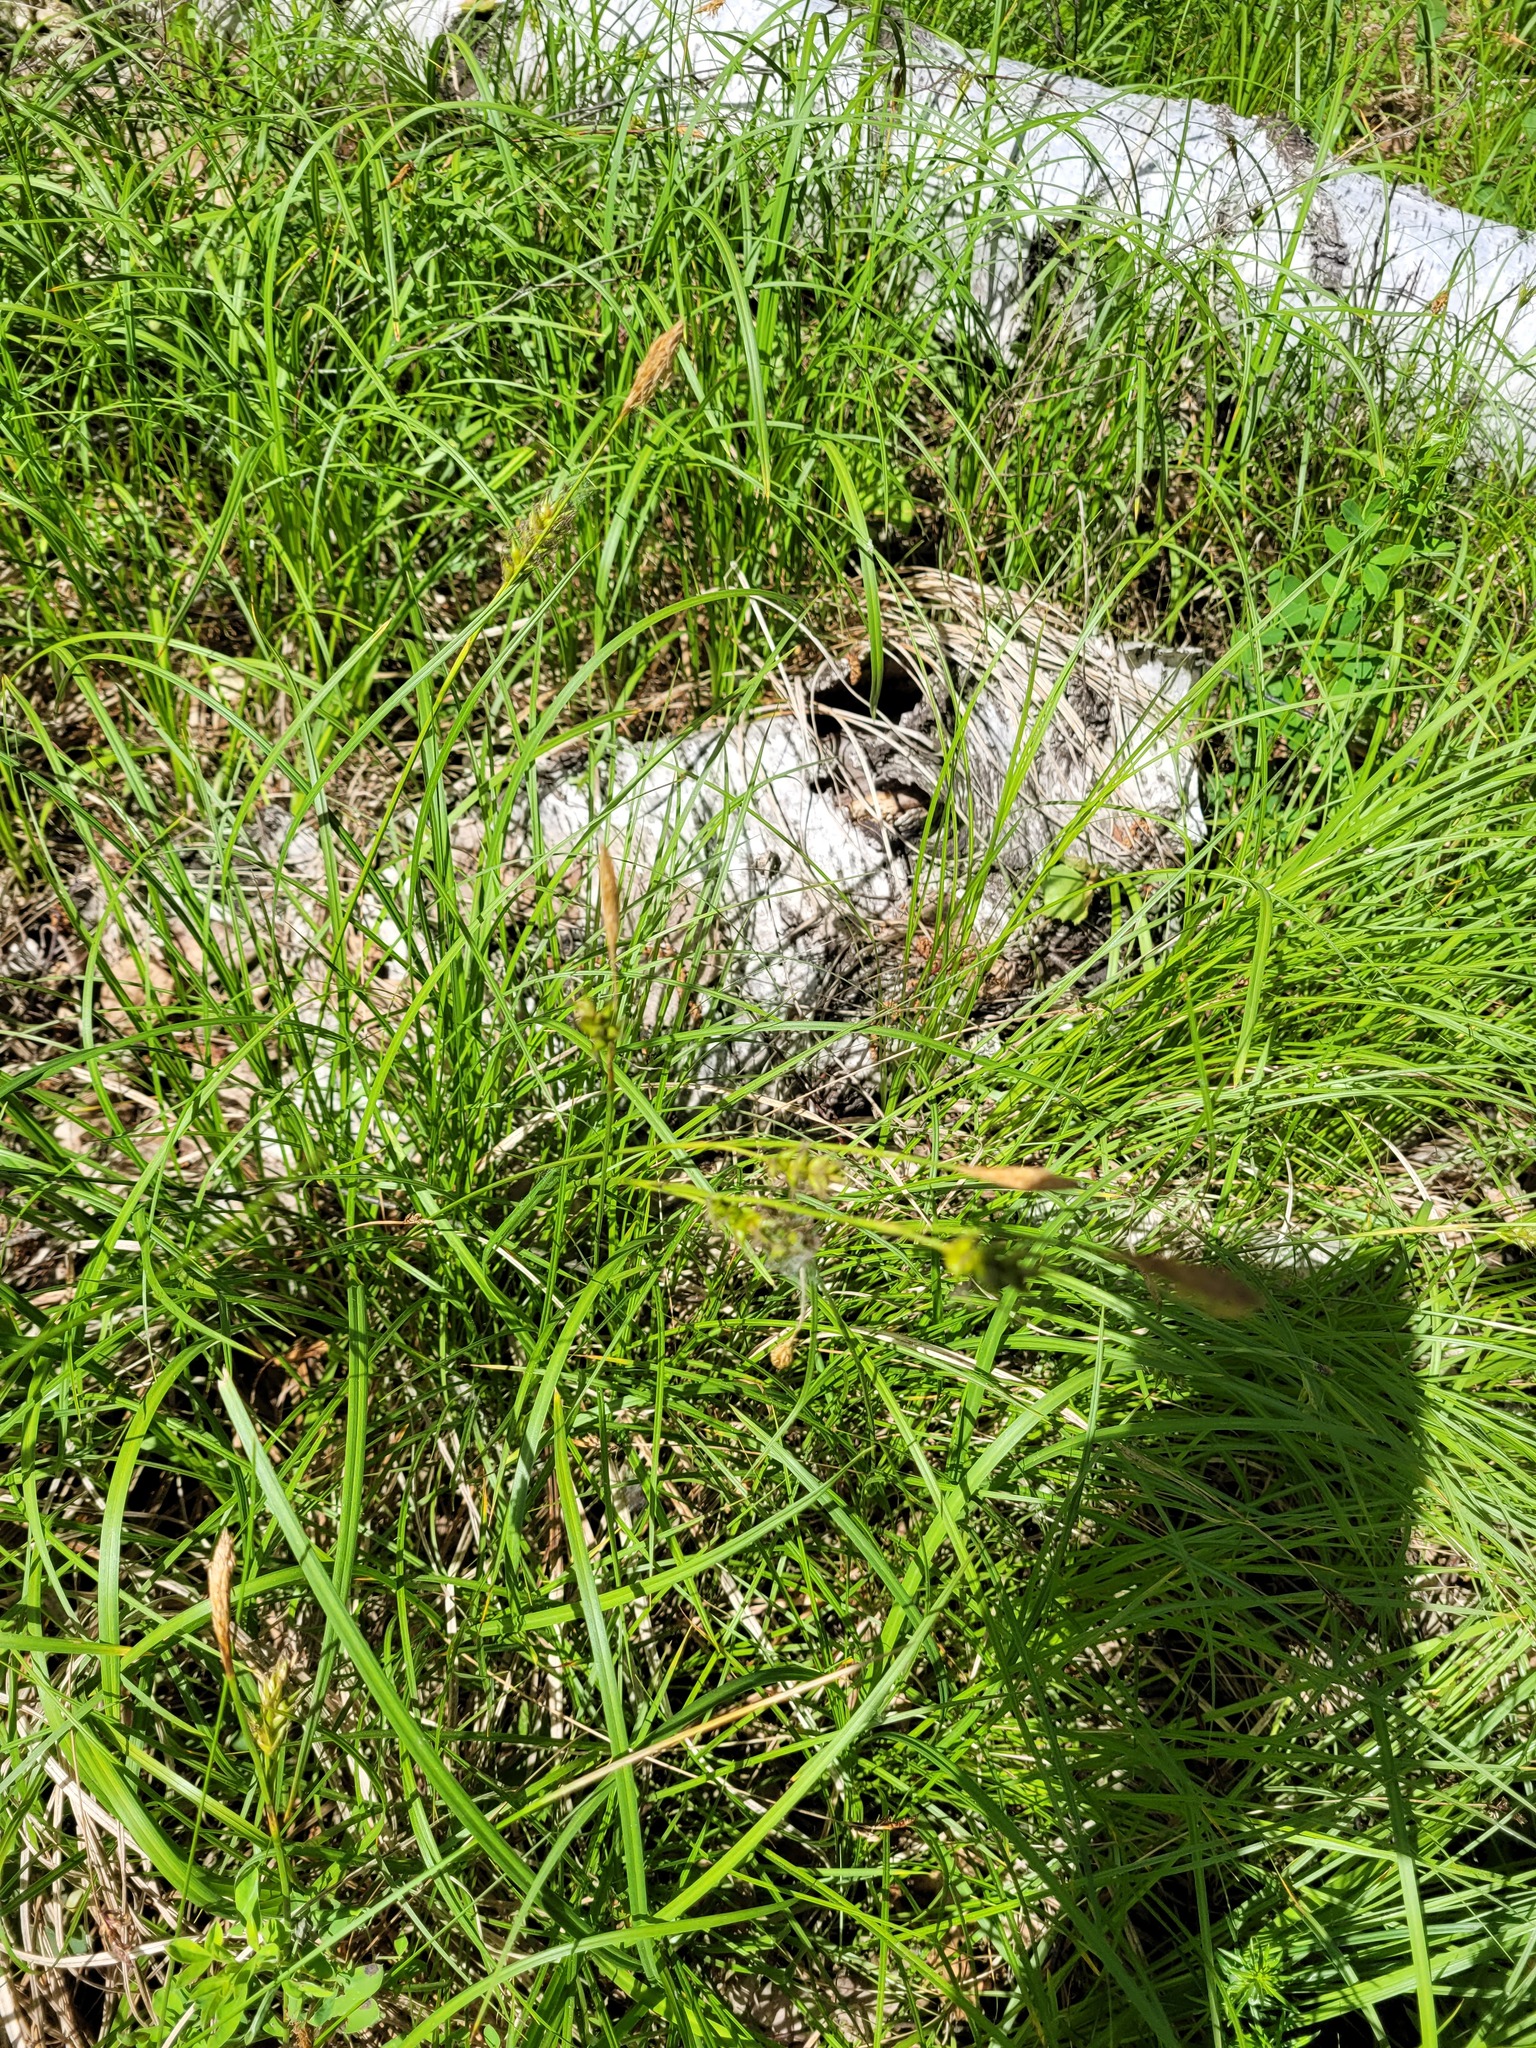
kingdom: Plantae
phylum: Tracheophyta
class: Liliopsida
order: Poales
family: Cyperaceae
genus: Carex
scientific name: Carex michelii
